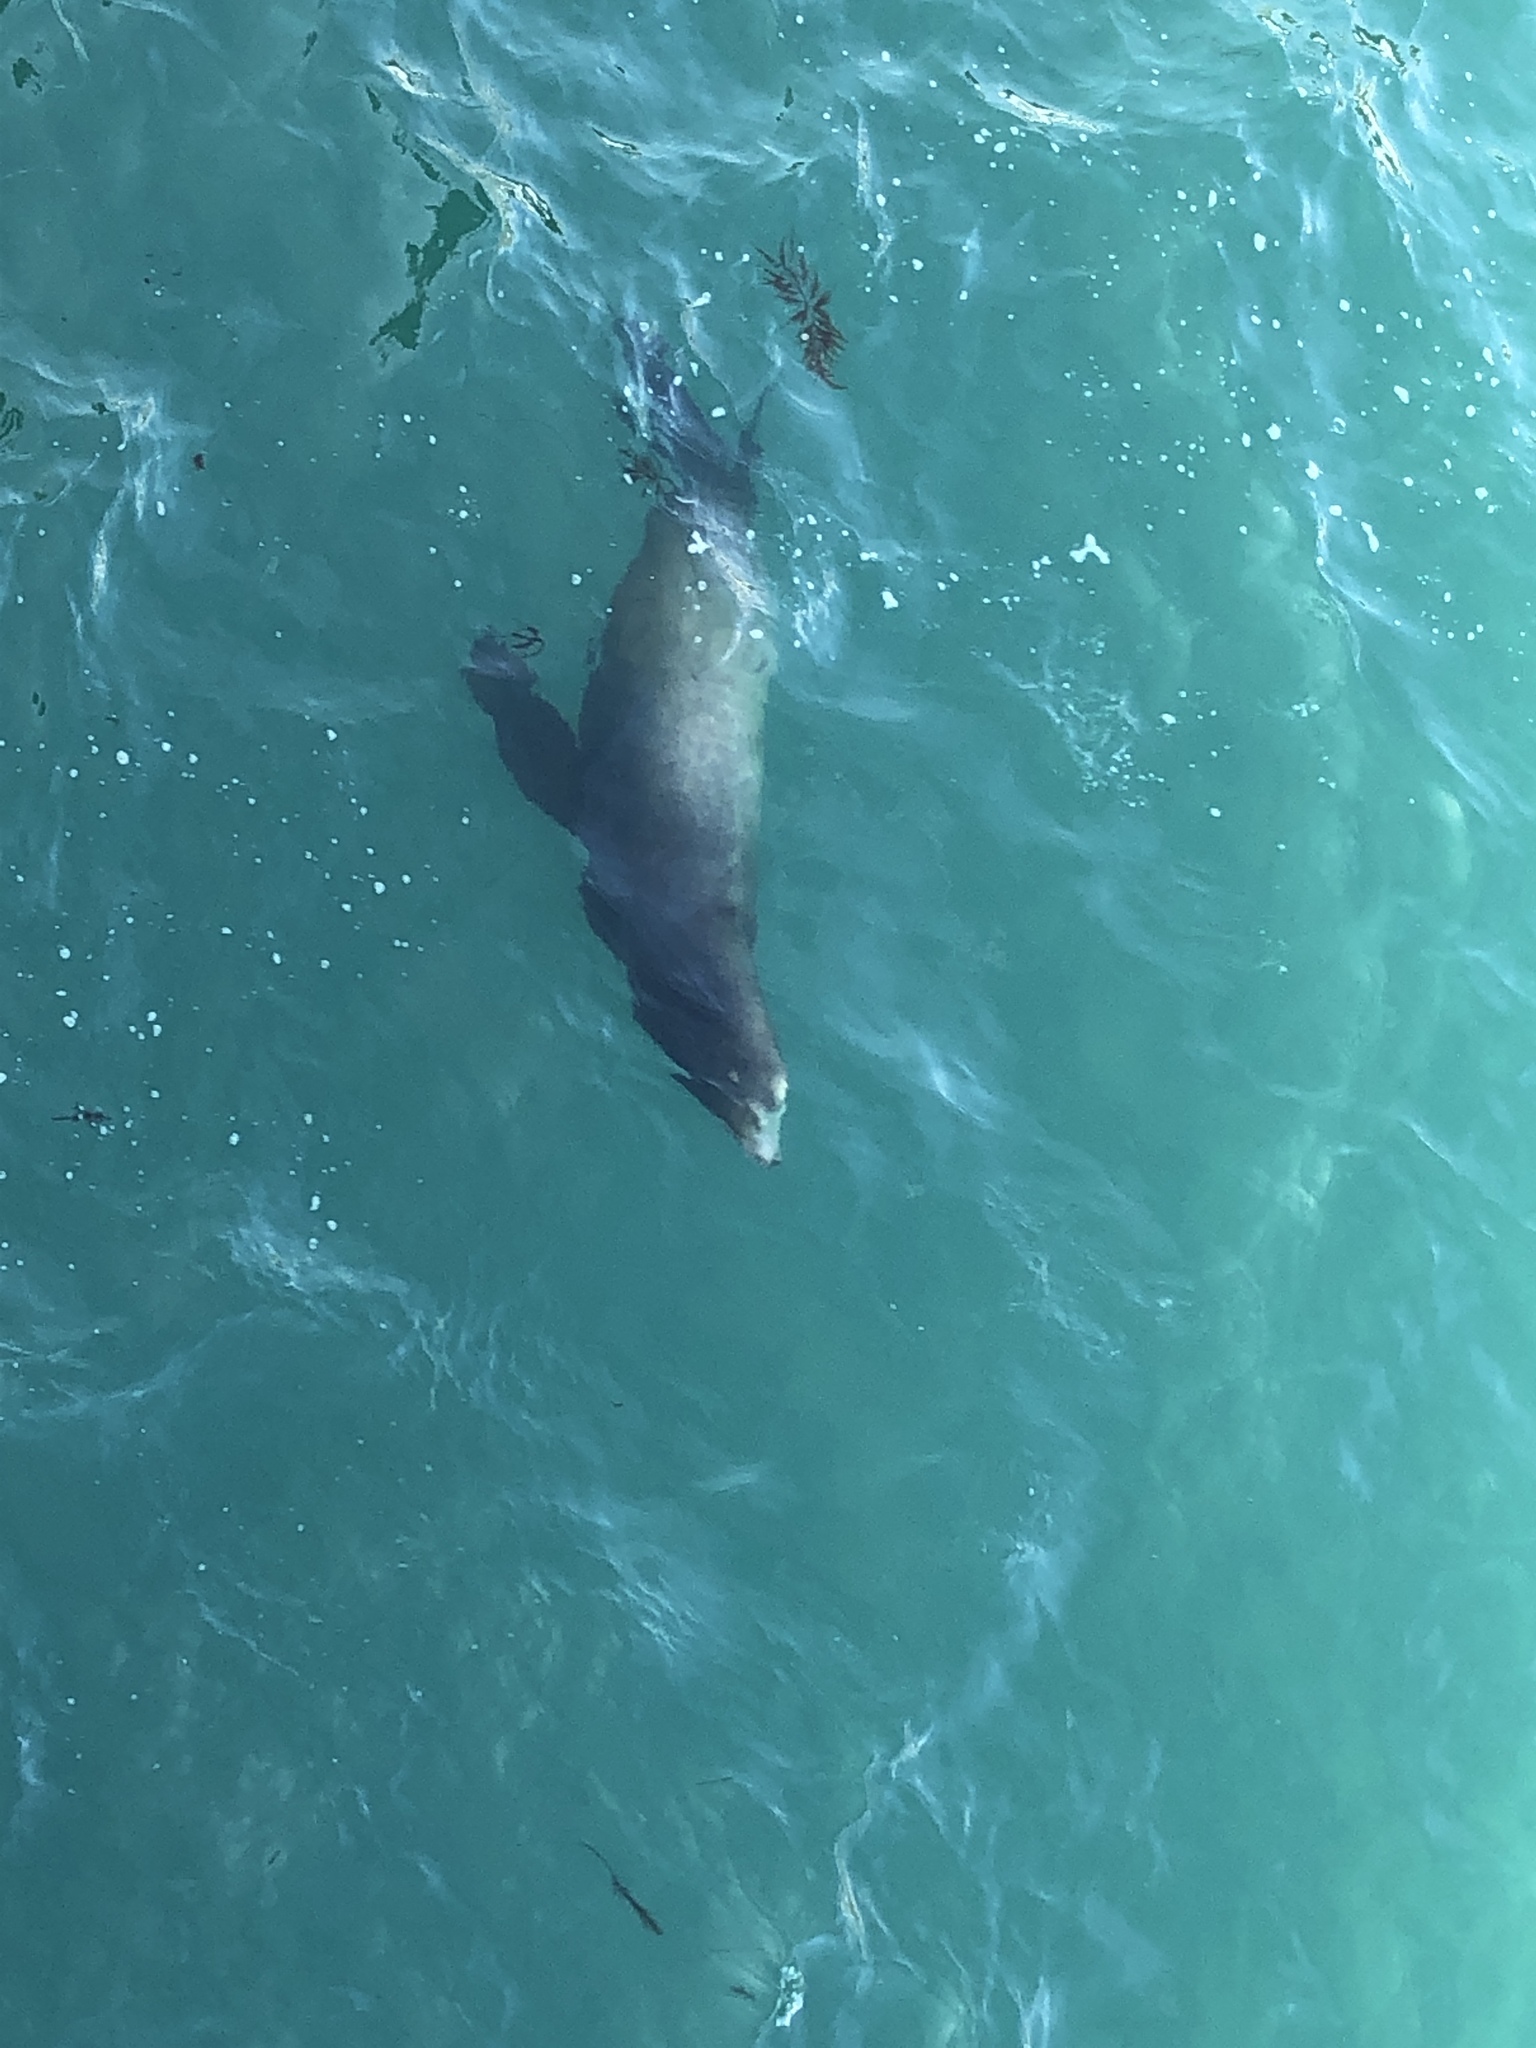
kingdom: Animalia
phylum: Chordata
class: Mammalia
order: Carnivora
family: Otariidae
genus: Zalophus
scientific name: Zalophus californianus
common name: California sea lion
